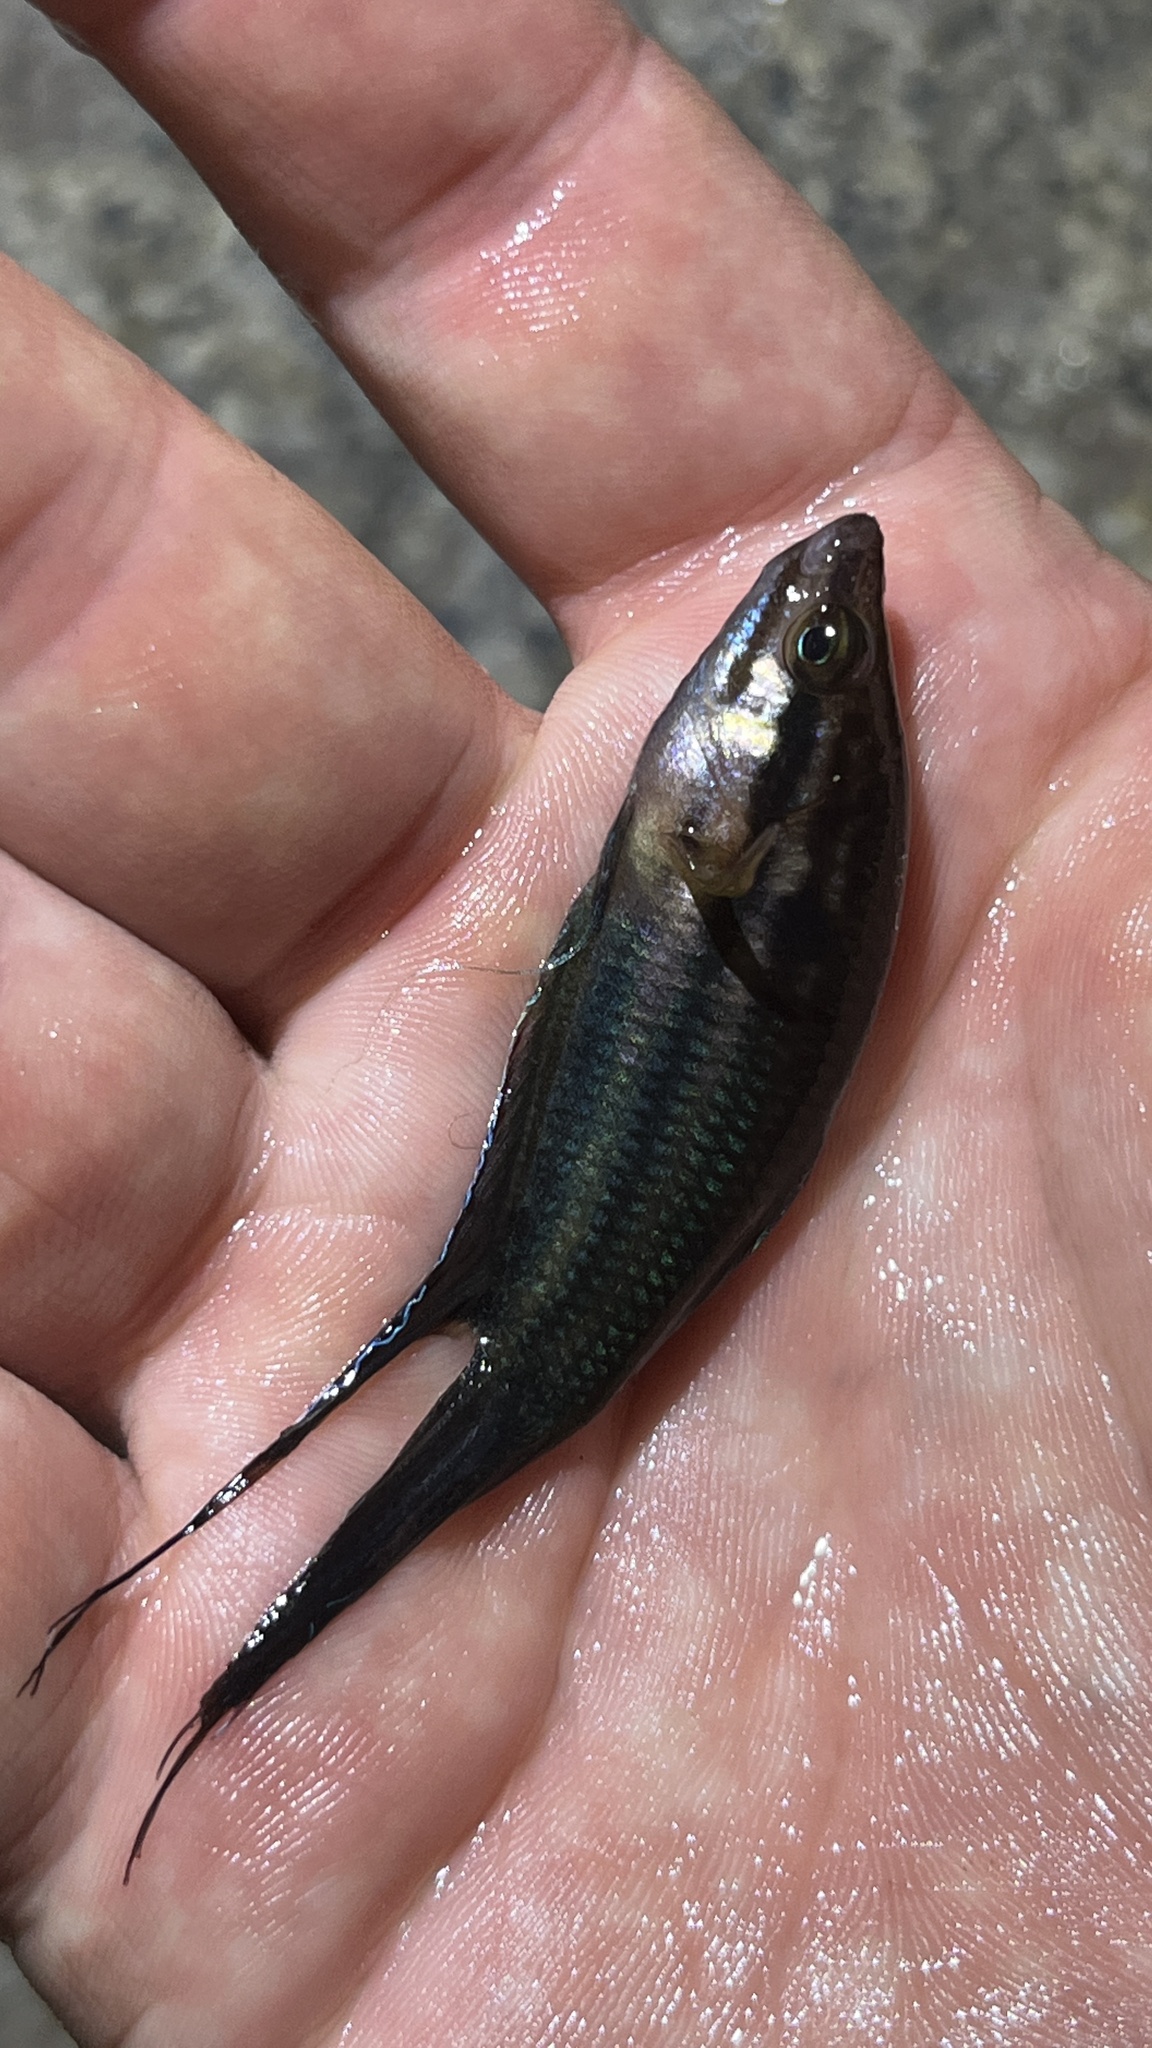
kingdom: Animalia
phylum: Chordata
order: Perciformes
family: Osphronemidae
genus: Trichopsis
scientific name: Trichopsis vittata
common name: Croaking gourami
